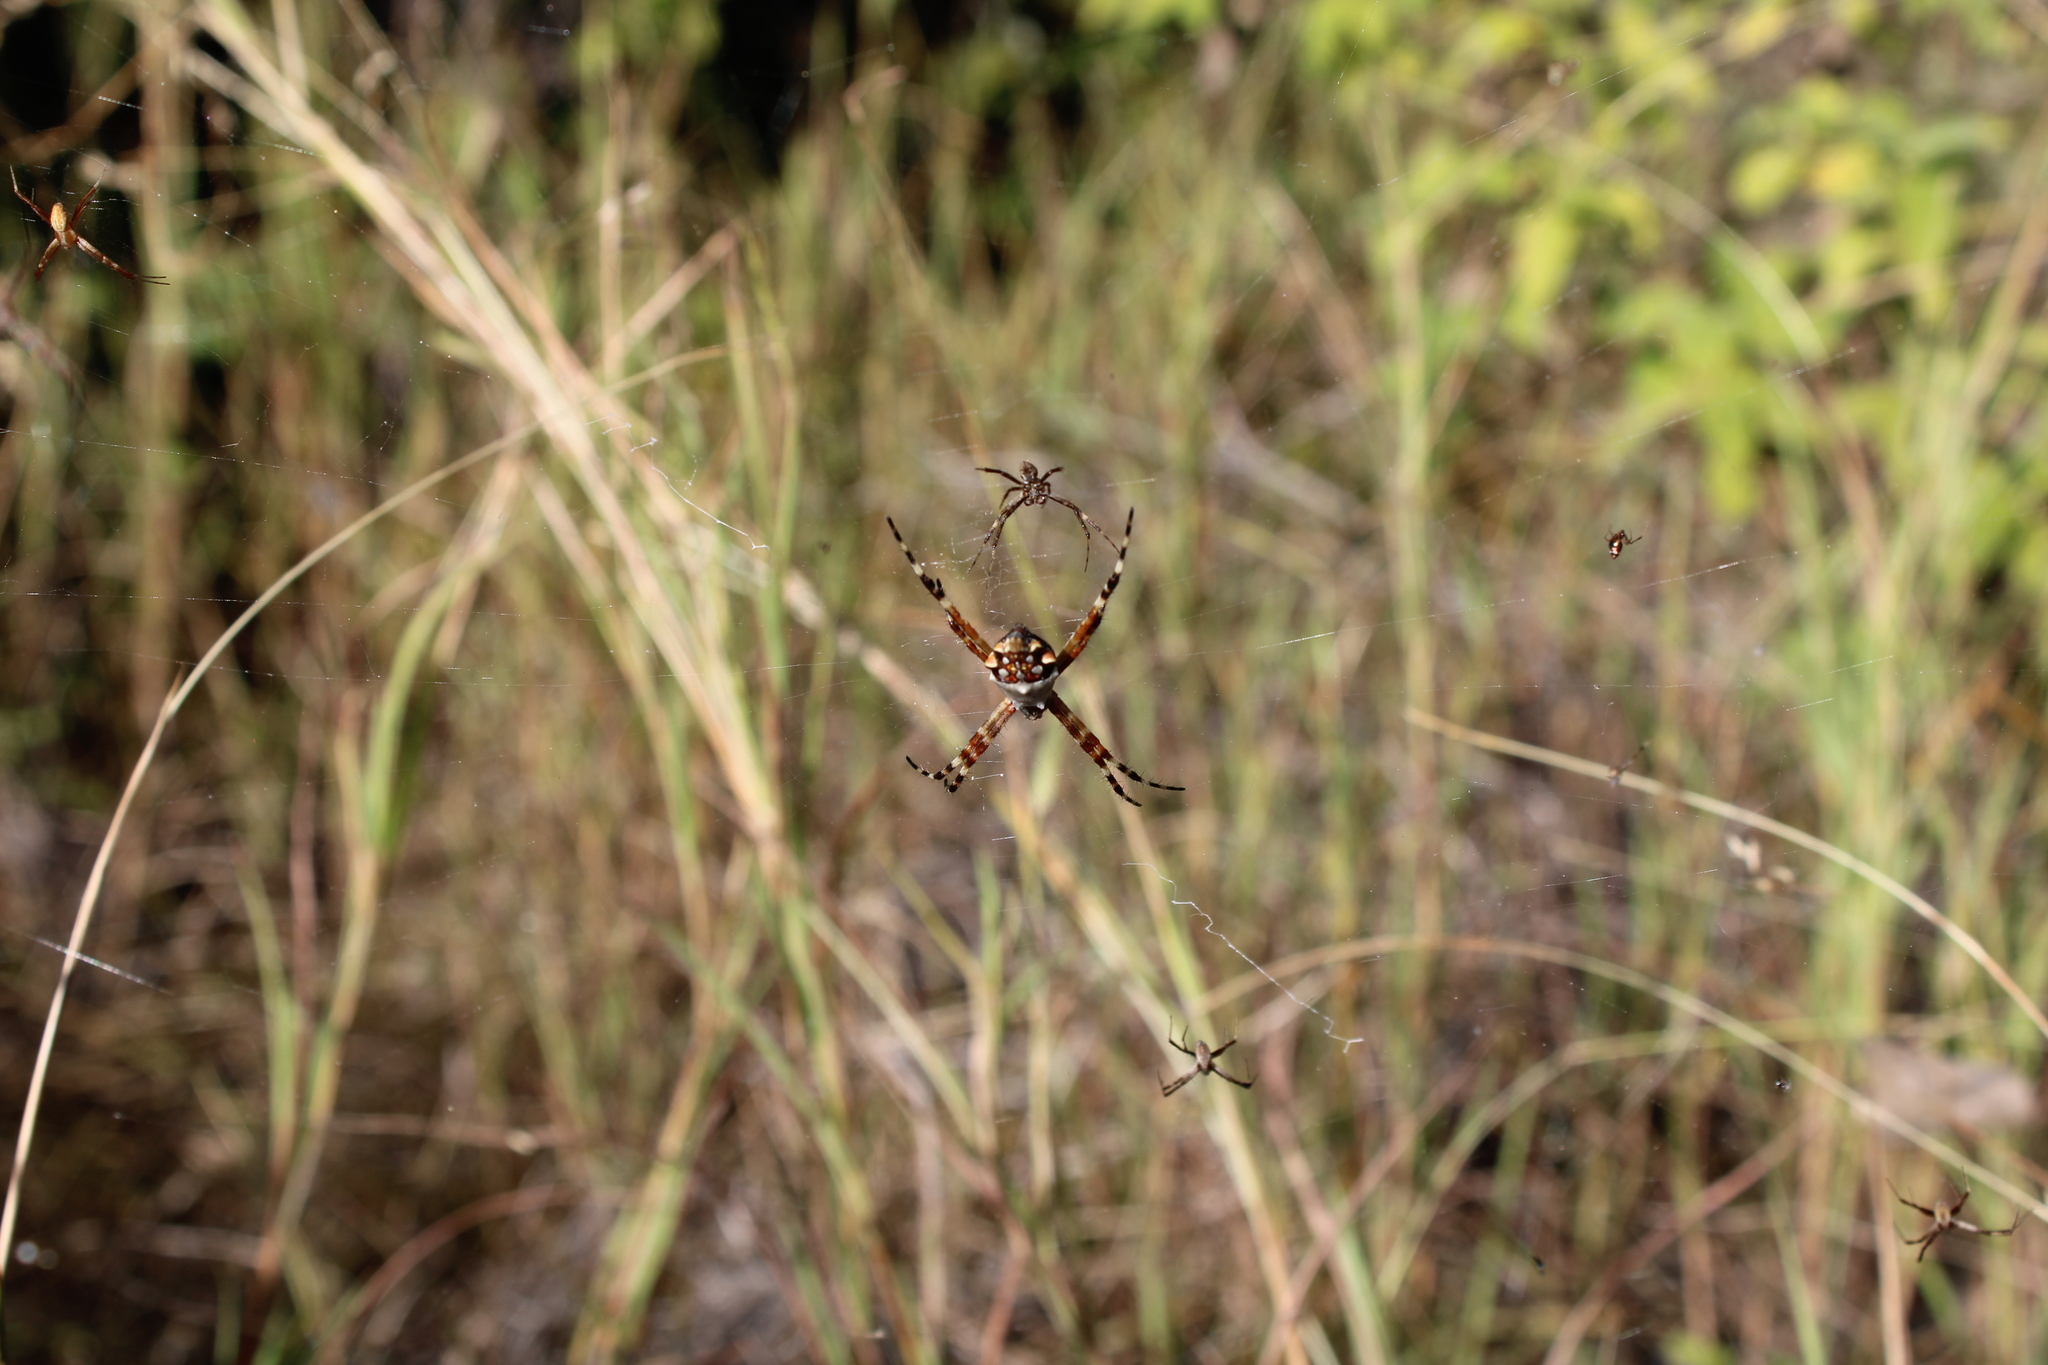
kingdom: Animalia
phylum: Arthropoda
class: Arachnida
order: Araneae
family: Araneidae
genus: Argiope
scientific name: Argiope argentata
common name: Orb weavers
